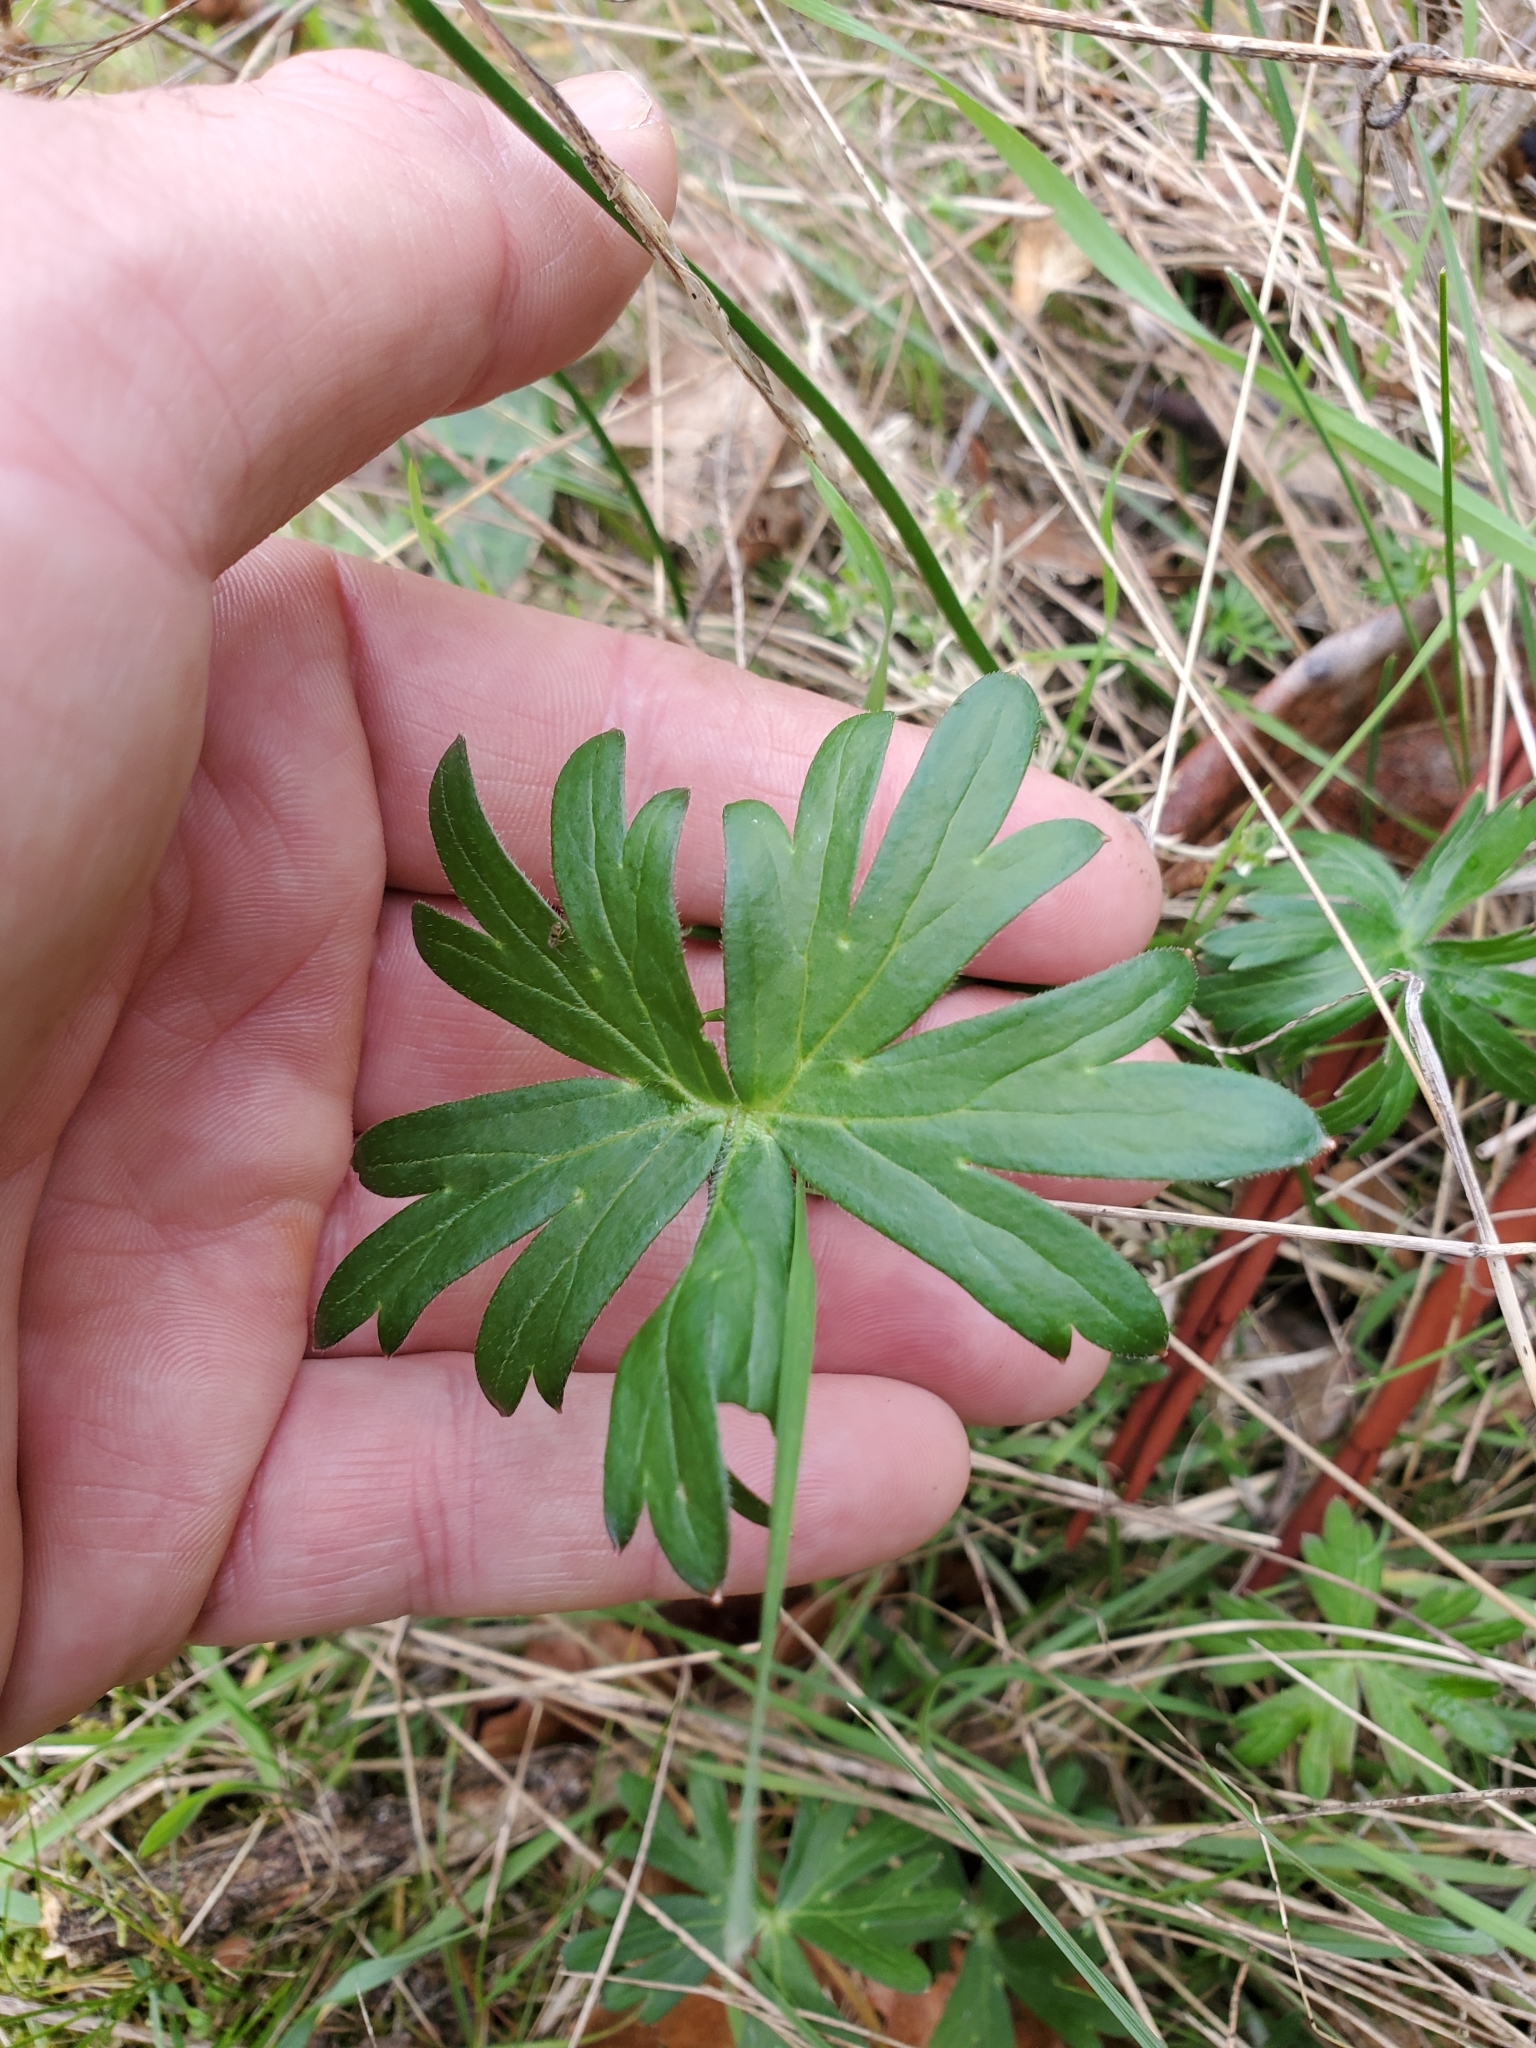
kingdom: Plantae
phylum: Tracheophyta
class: Magnoliopsida
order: Ranunculales
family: Ranunculaceae
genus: Delphinium
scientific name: Delphinium menziesii
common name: Menzies's larkspur
